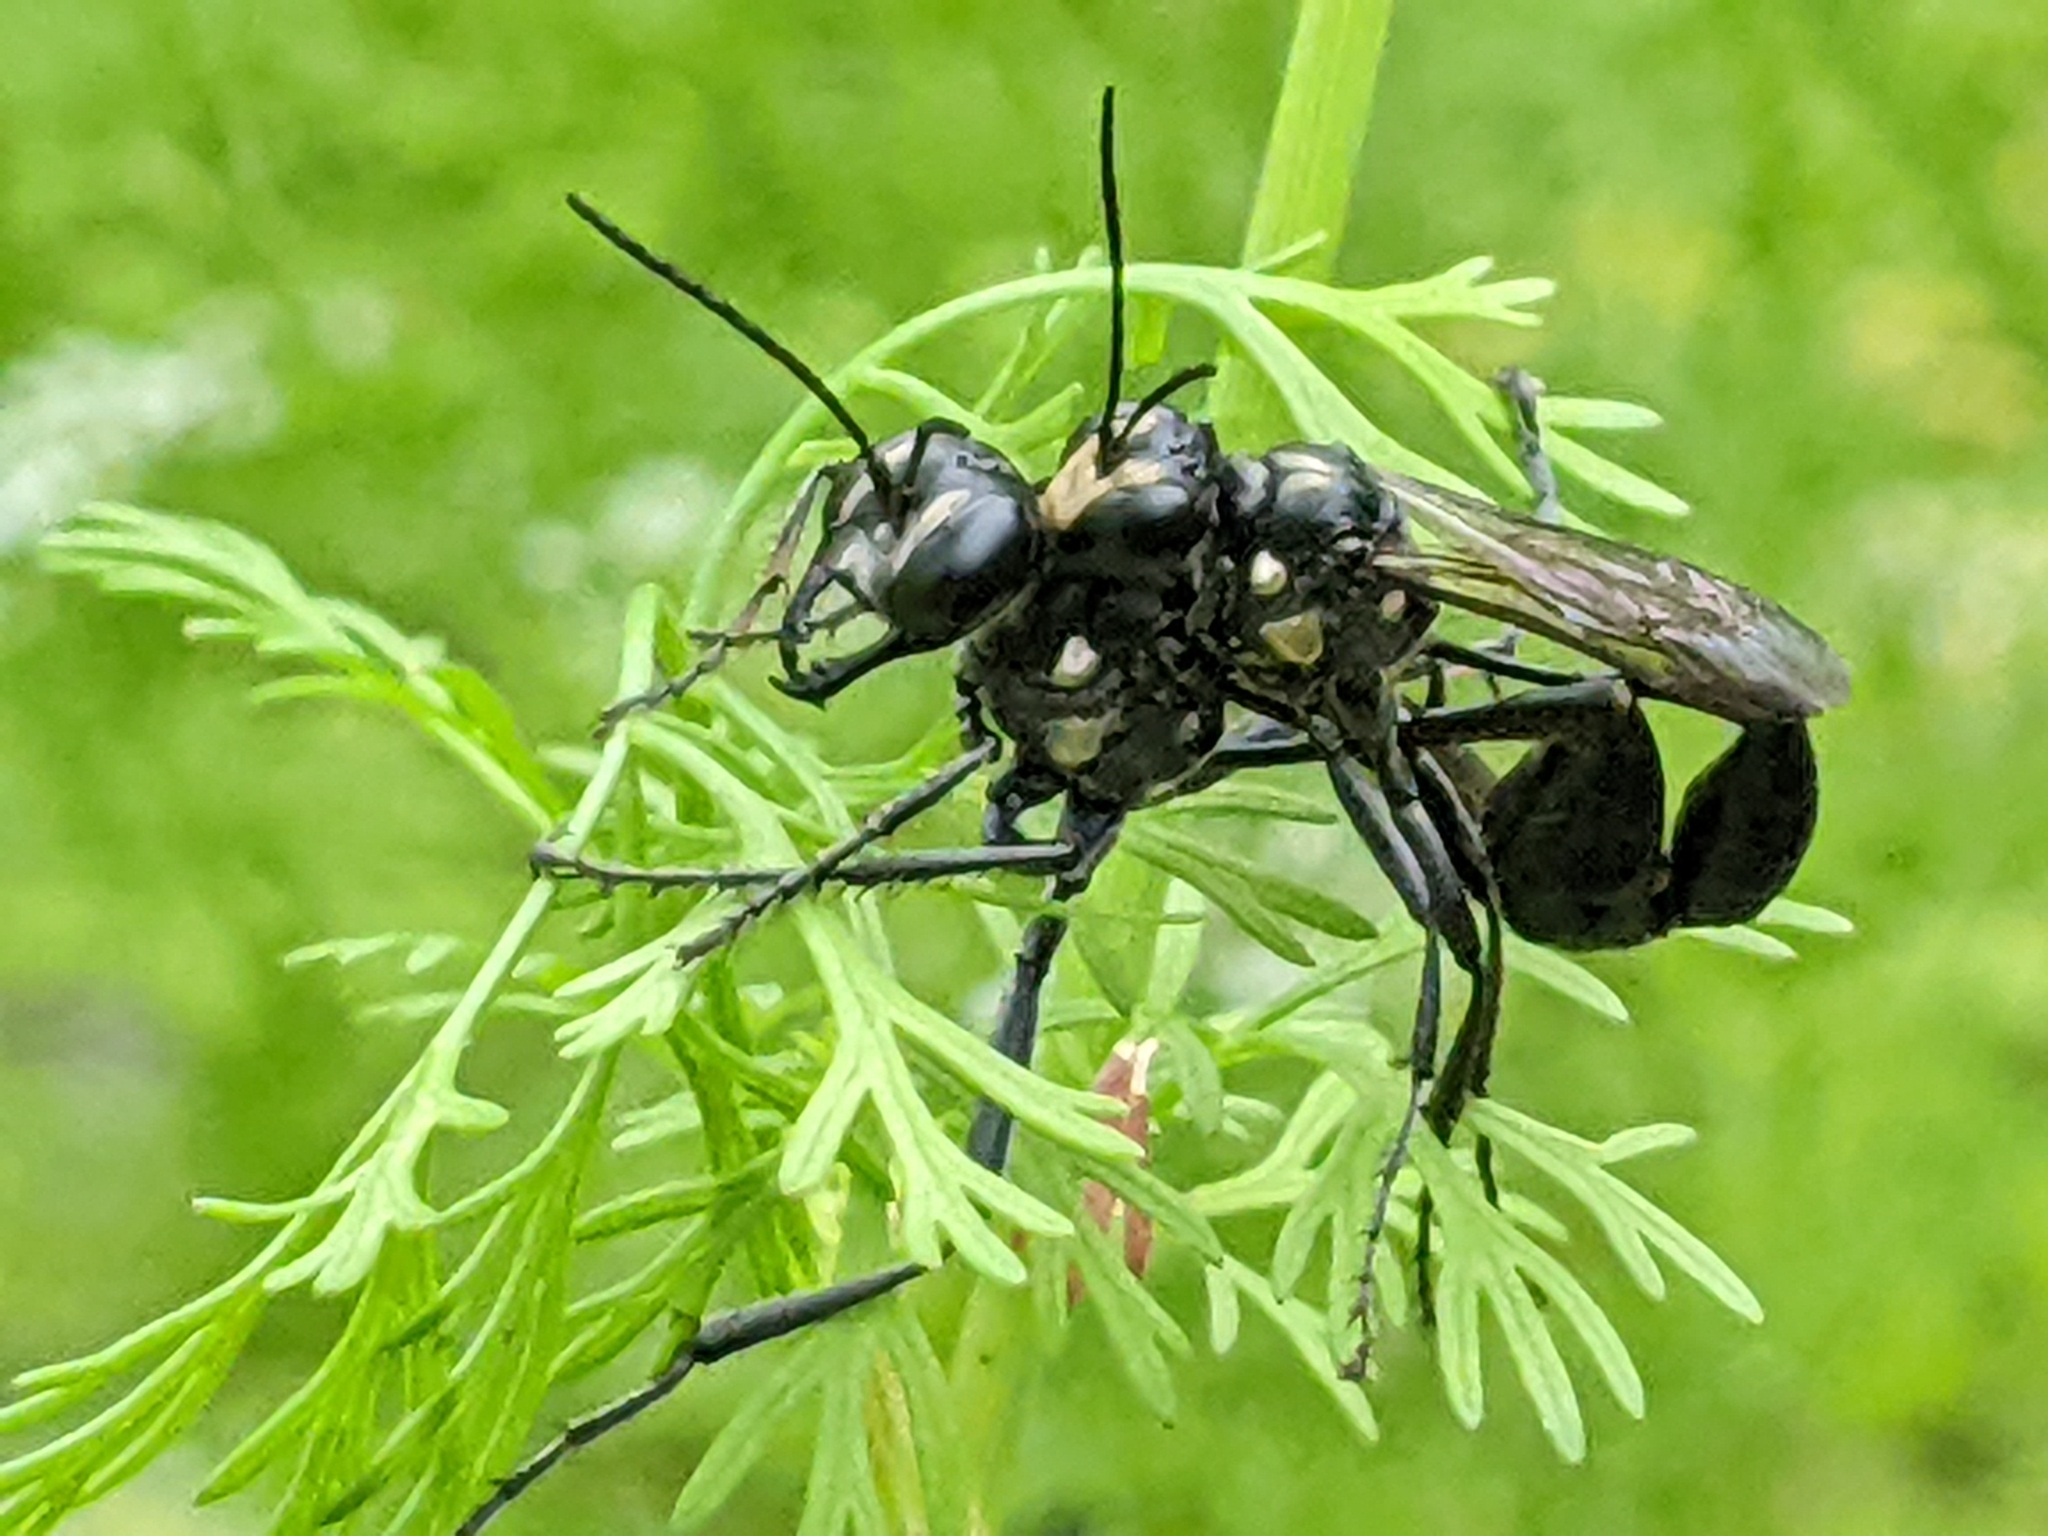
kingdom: Animalia
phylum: Arthropoda
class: Insecta
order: Hymenoptera
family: Sphecidae
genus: Eremnophila
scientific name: Eremnophila aureonotata
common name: Gold-marked thread-waisted wasp
